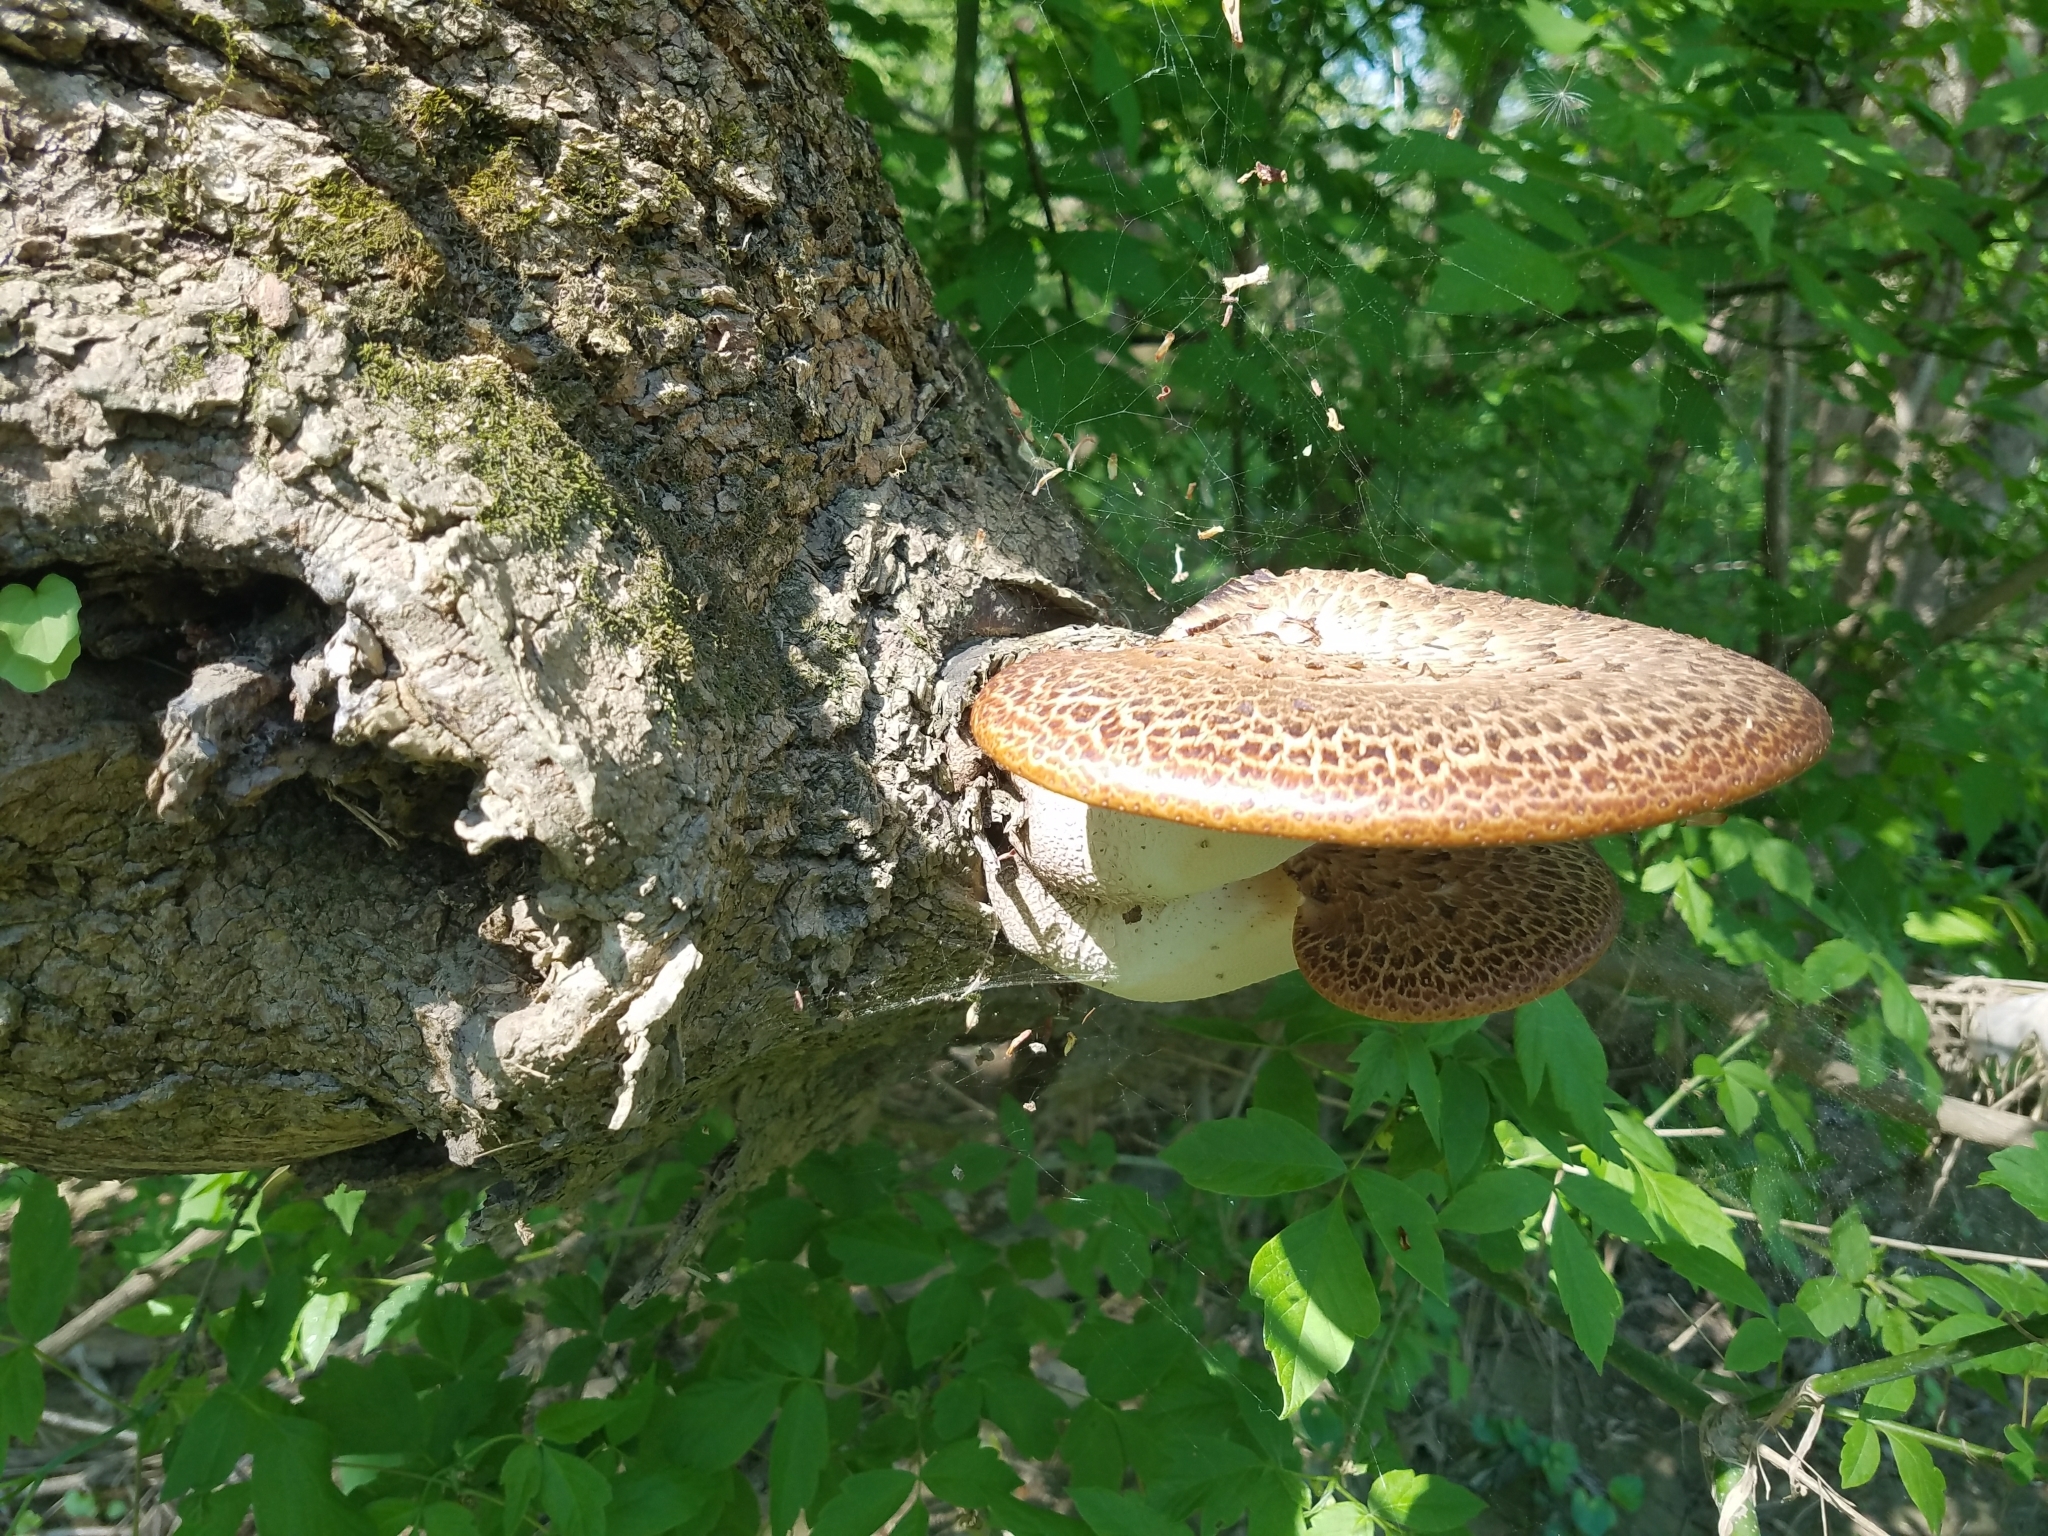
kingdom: Fungi
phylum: Basidiomycota
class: Agaricomycetes
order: Polyporales
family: Polyporaceae
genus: Cerioporus
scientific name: Cerioporus squamosus
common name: Dryad's saddle
